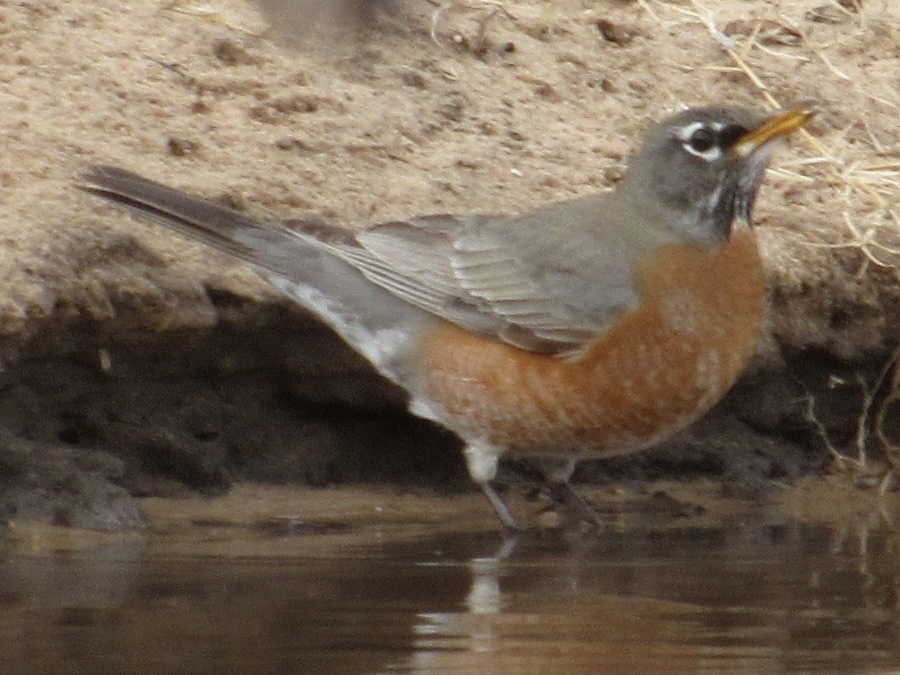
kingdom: Animalia
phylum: Chordata
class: Aves
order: Passeriformes
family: Turdidae
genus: Turdus
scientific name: Turdus migratorius
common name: American robin
